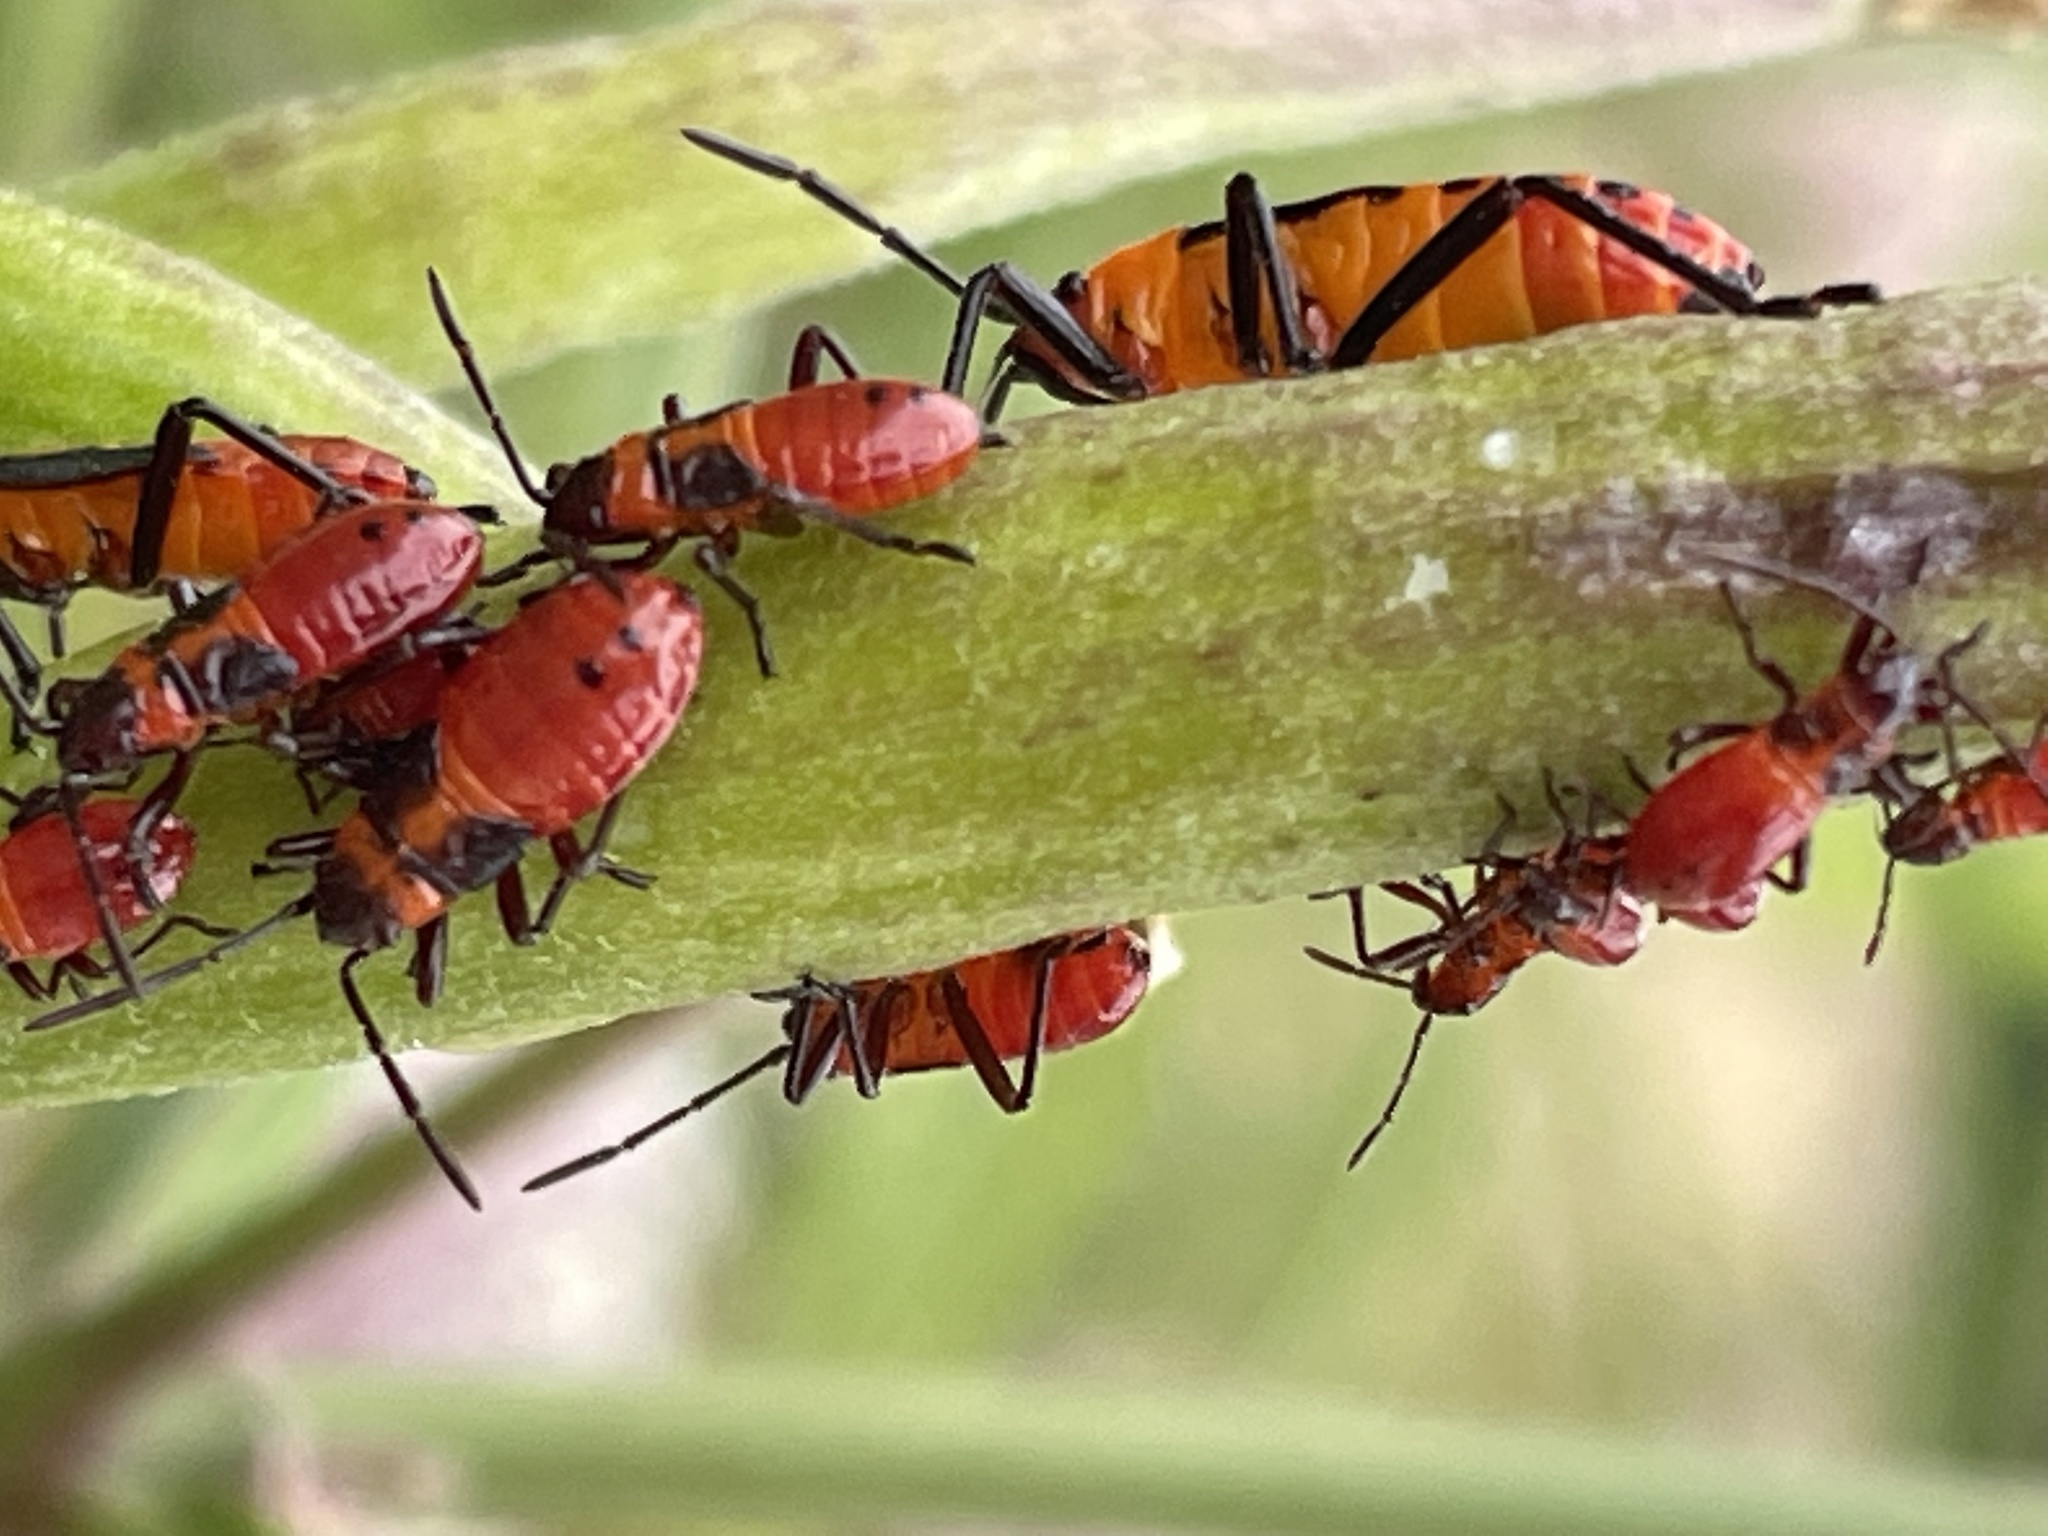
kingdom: Animalia
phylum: Arthropoda
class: Insecta
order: Hemiptera
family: Lygaeidae
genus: Oncopeltus
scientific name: Oncopeltus fasciatus
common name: Large milkweed bug
